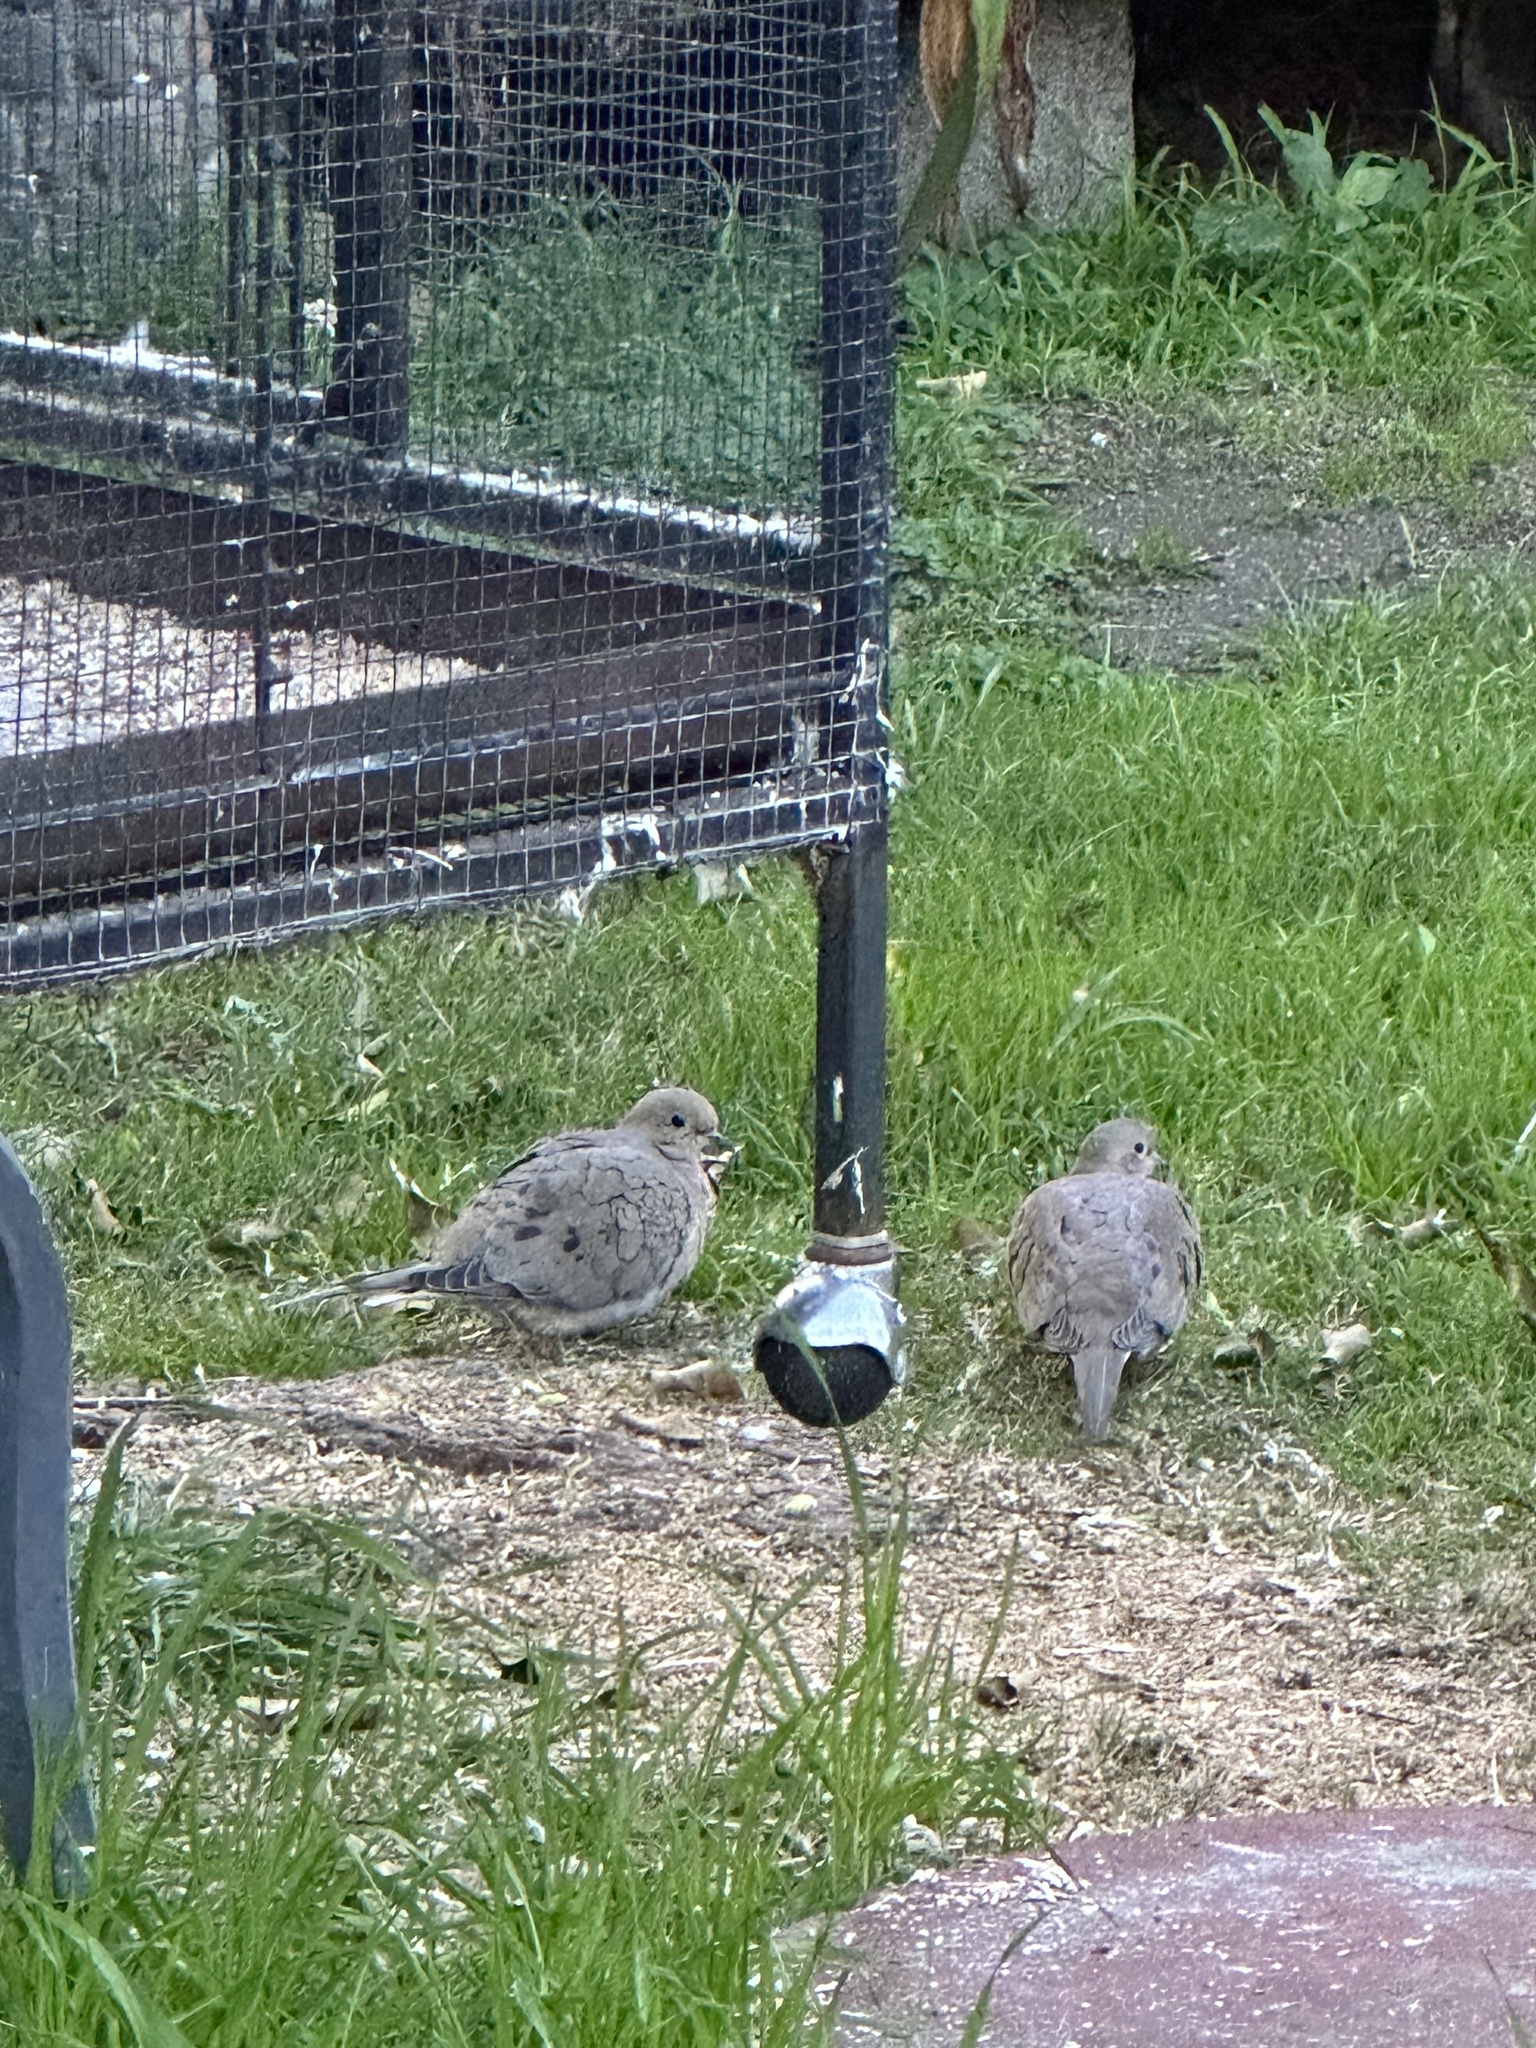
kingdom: Animalia
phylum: Chordata
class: Aves
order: Columbiformes
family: Columbidae
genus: Zenaida
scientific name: Zenaida macroura
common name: Mourning dove
